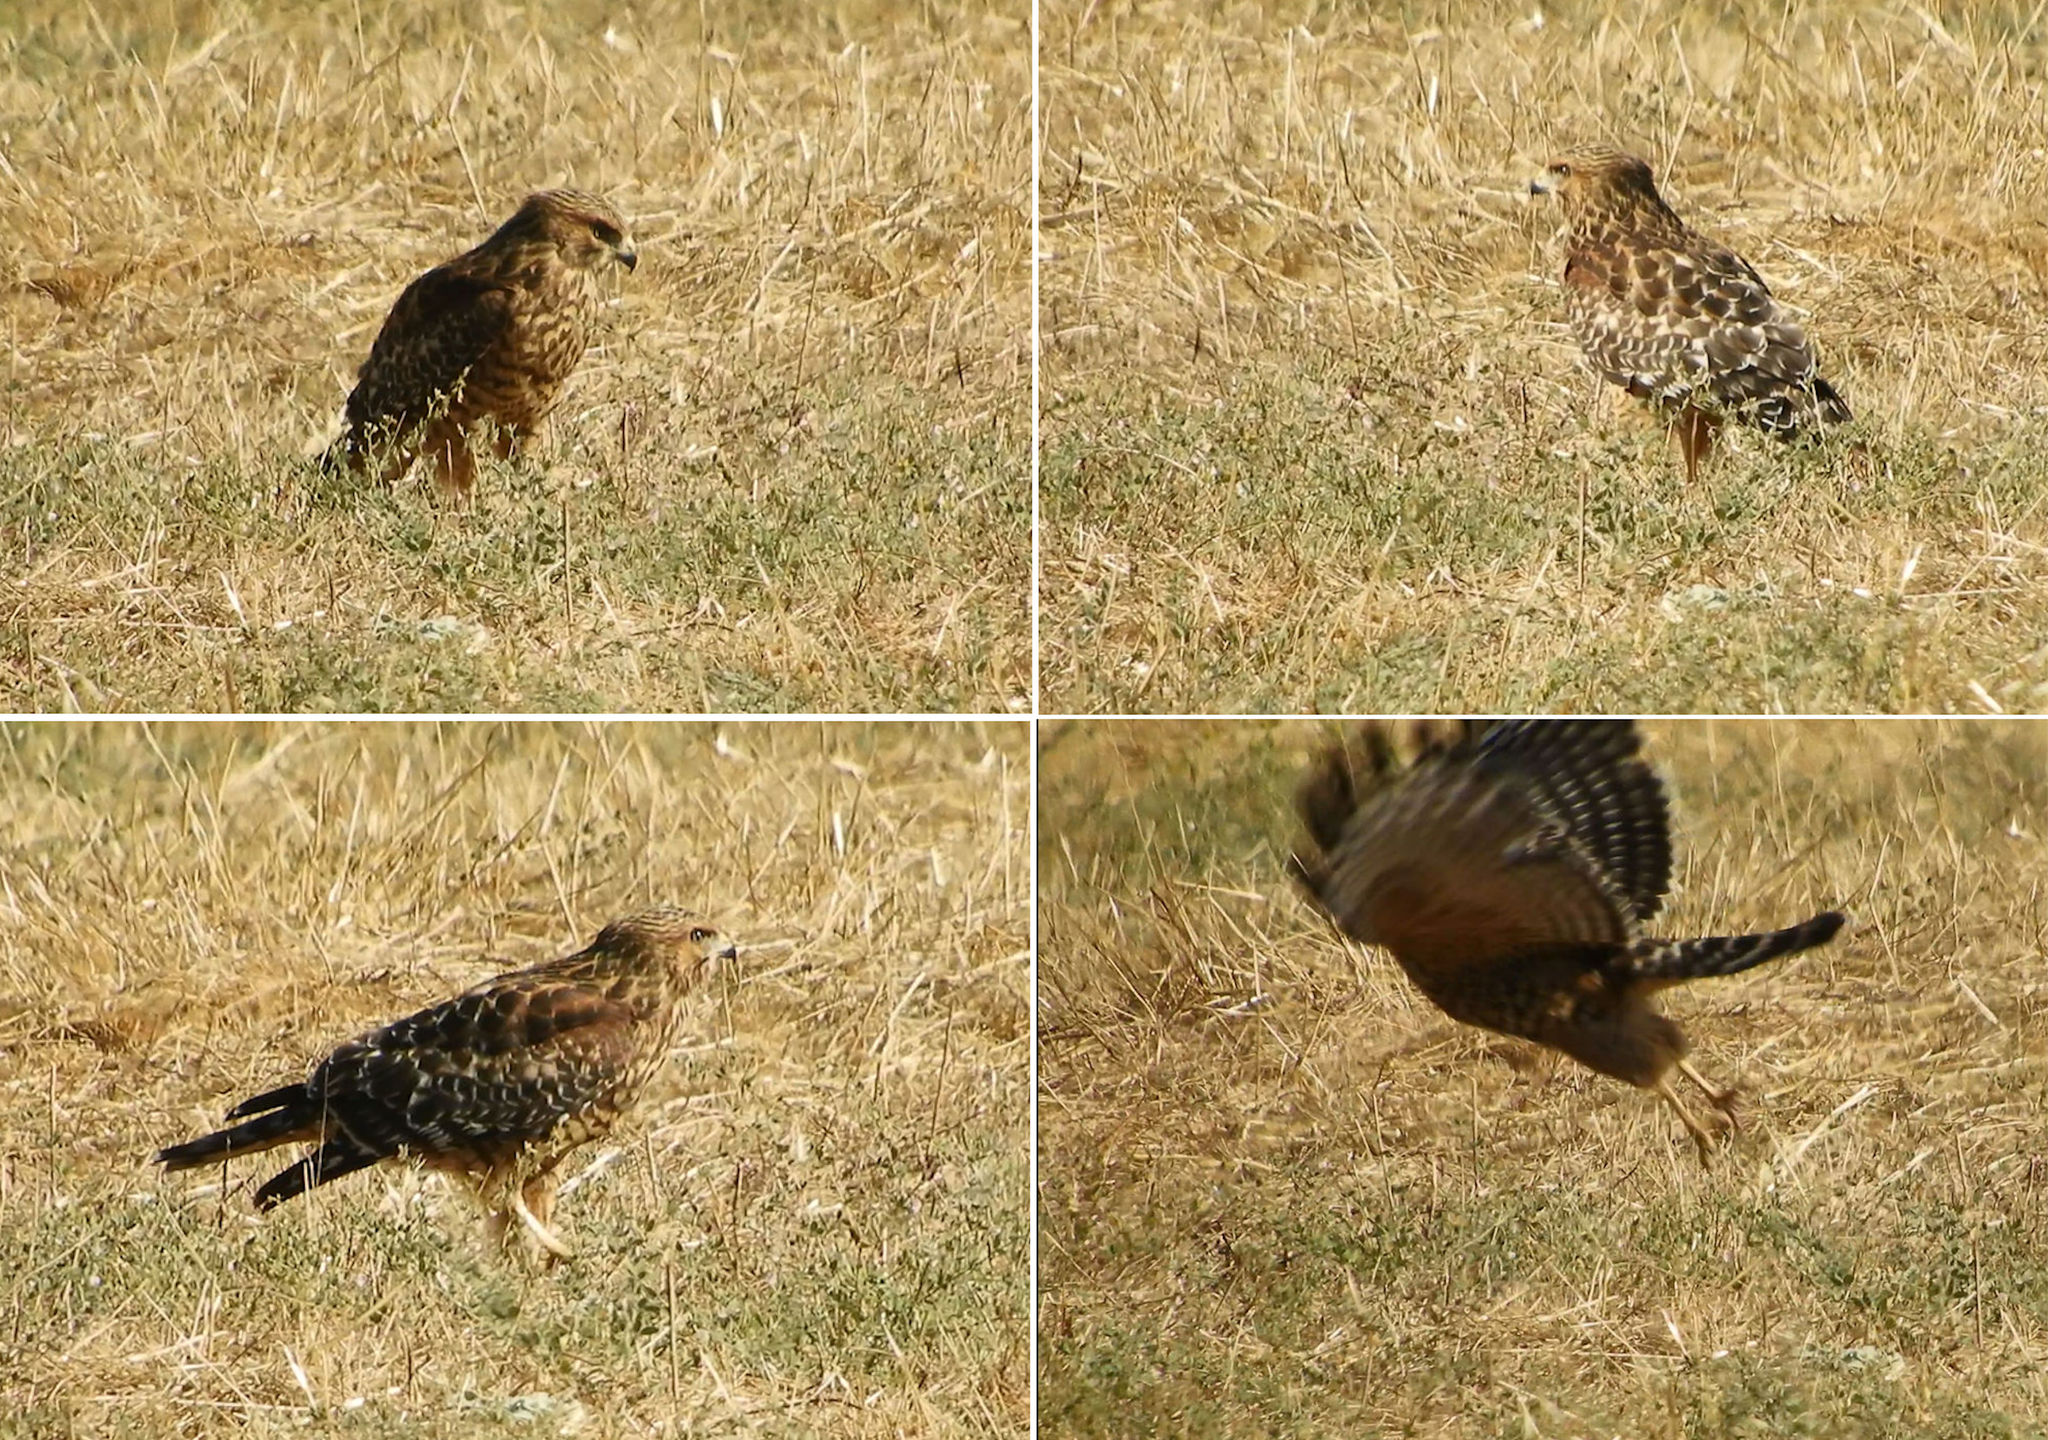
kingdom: Animalia
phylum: Chordata
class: Aves
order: Accipitriformes
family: Accipitridae
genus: Buteo
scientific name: Buteo lineatus
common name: Red-shouldered hawk
